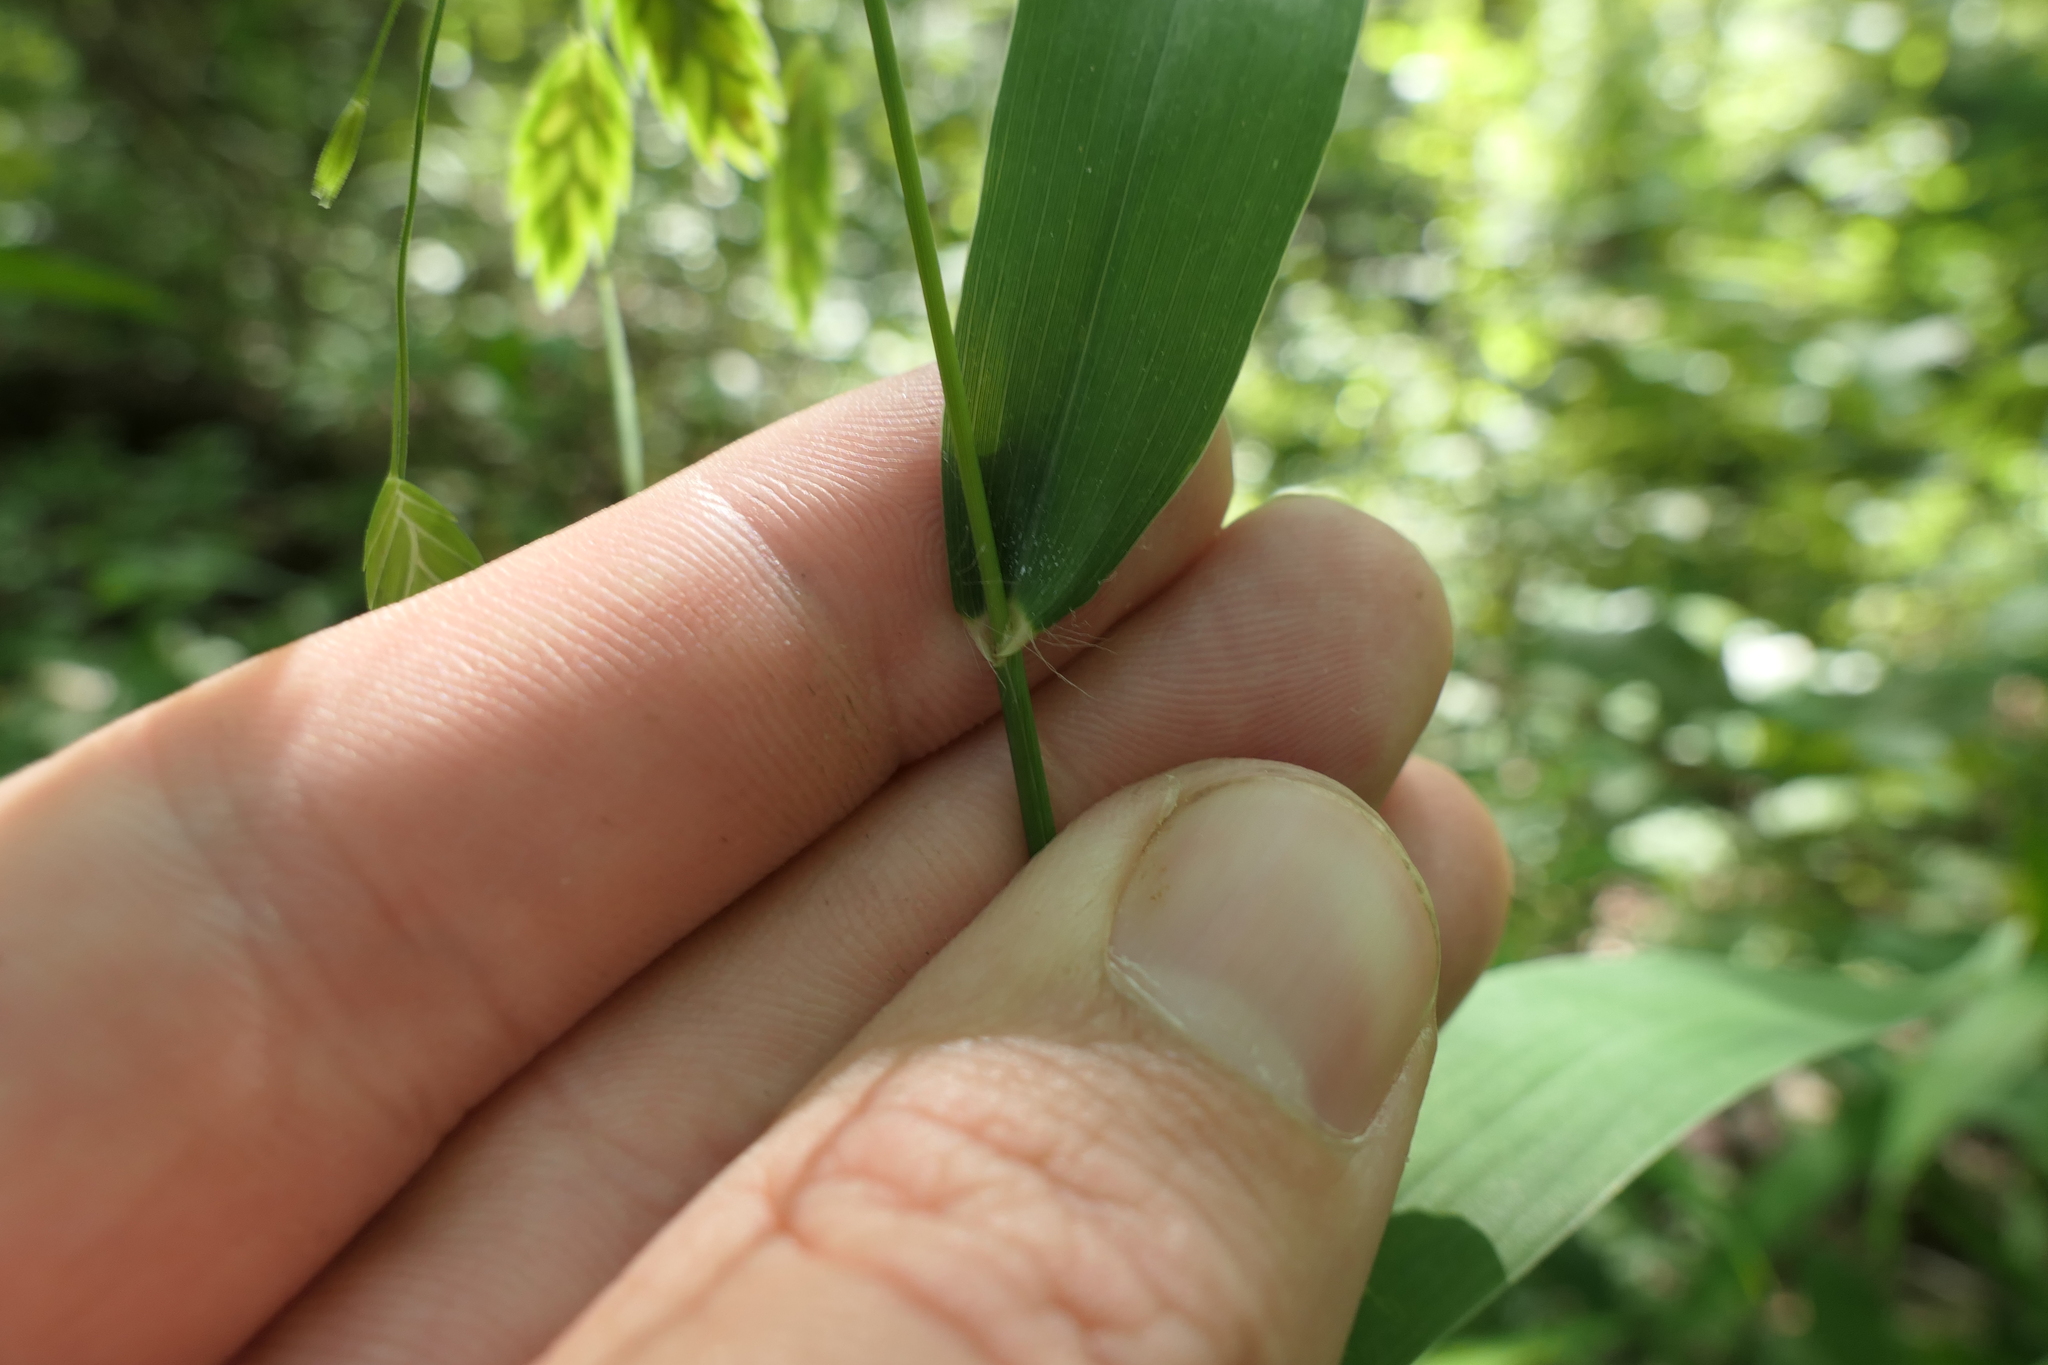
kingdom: Plantae
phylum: Tracheophyta
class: Liliopsida
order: Poales
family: Poaceae
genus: Chasmanthium
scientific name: Chasmanthium latifolium
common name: Broad-leaved chasmanthium
